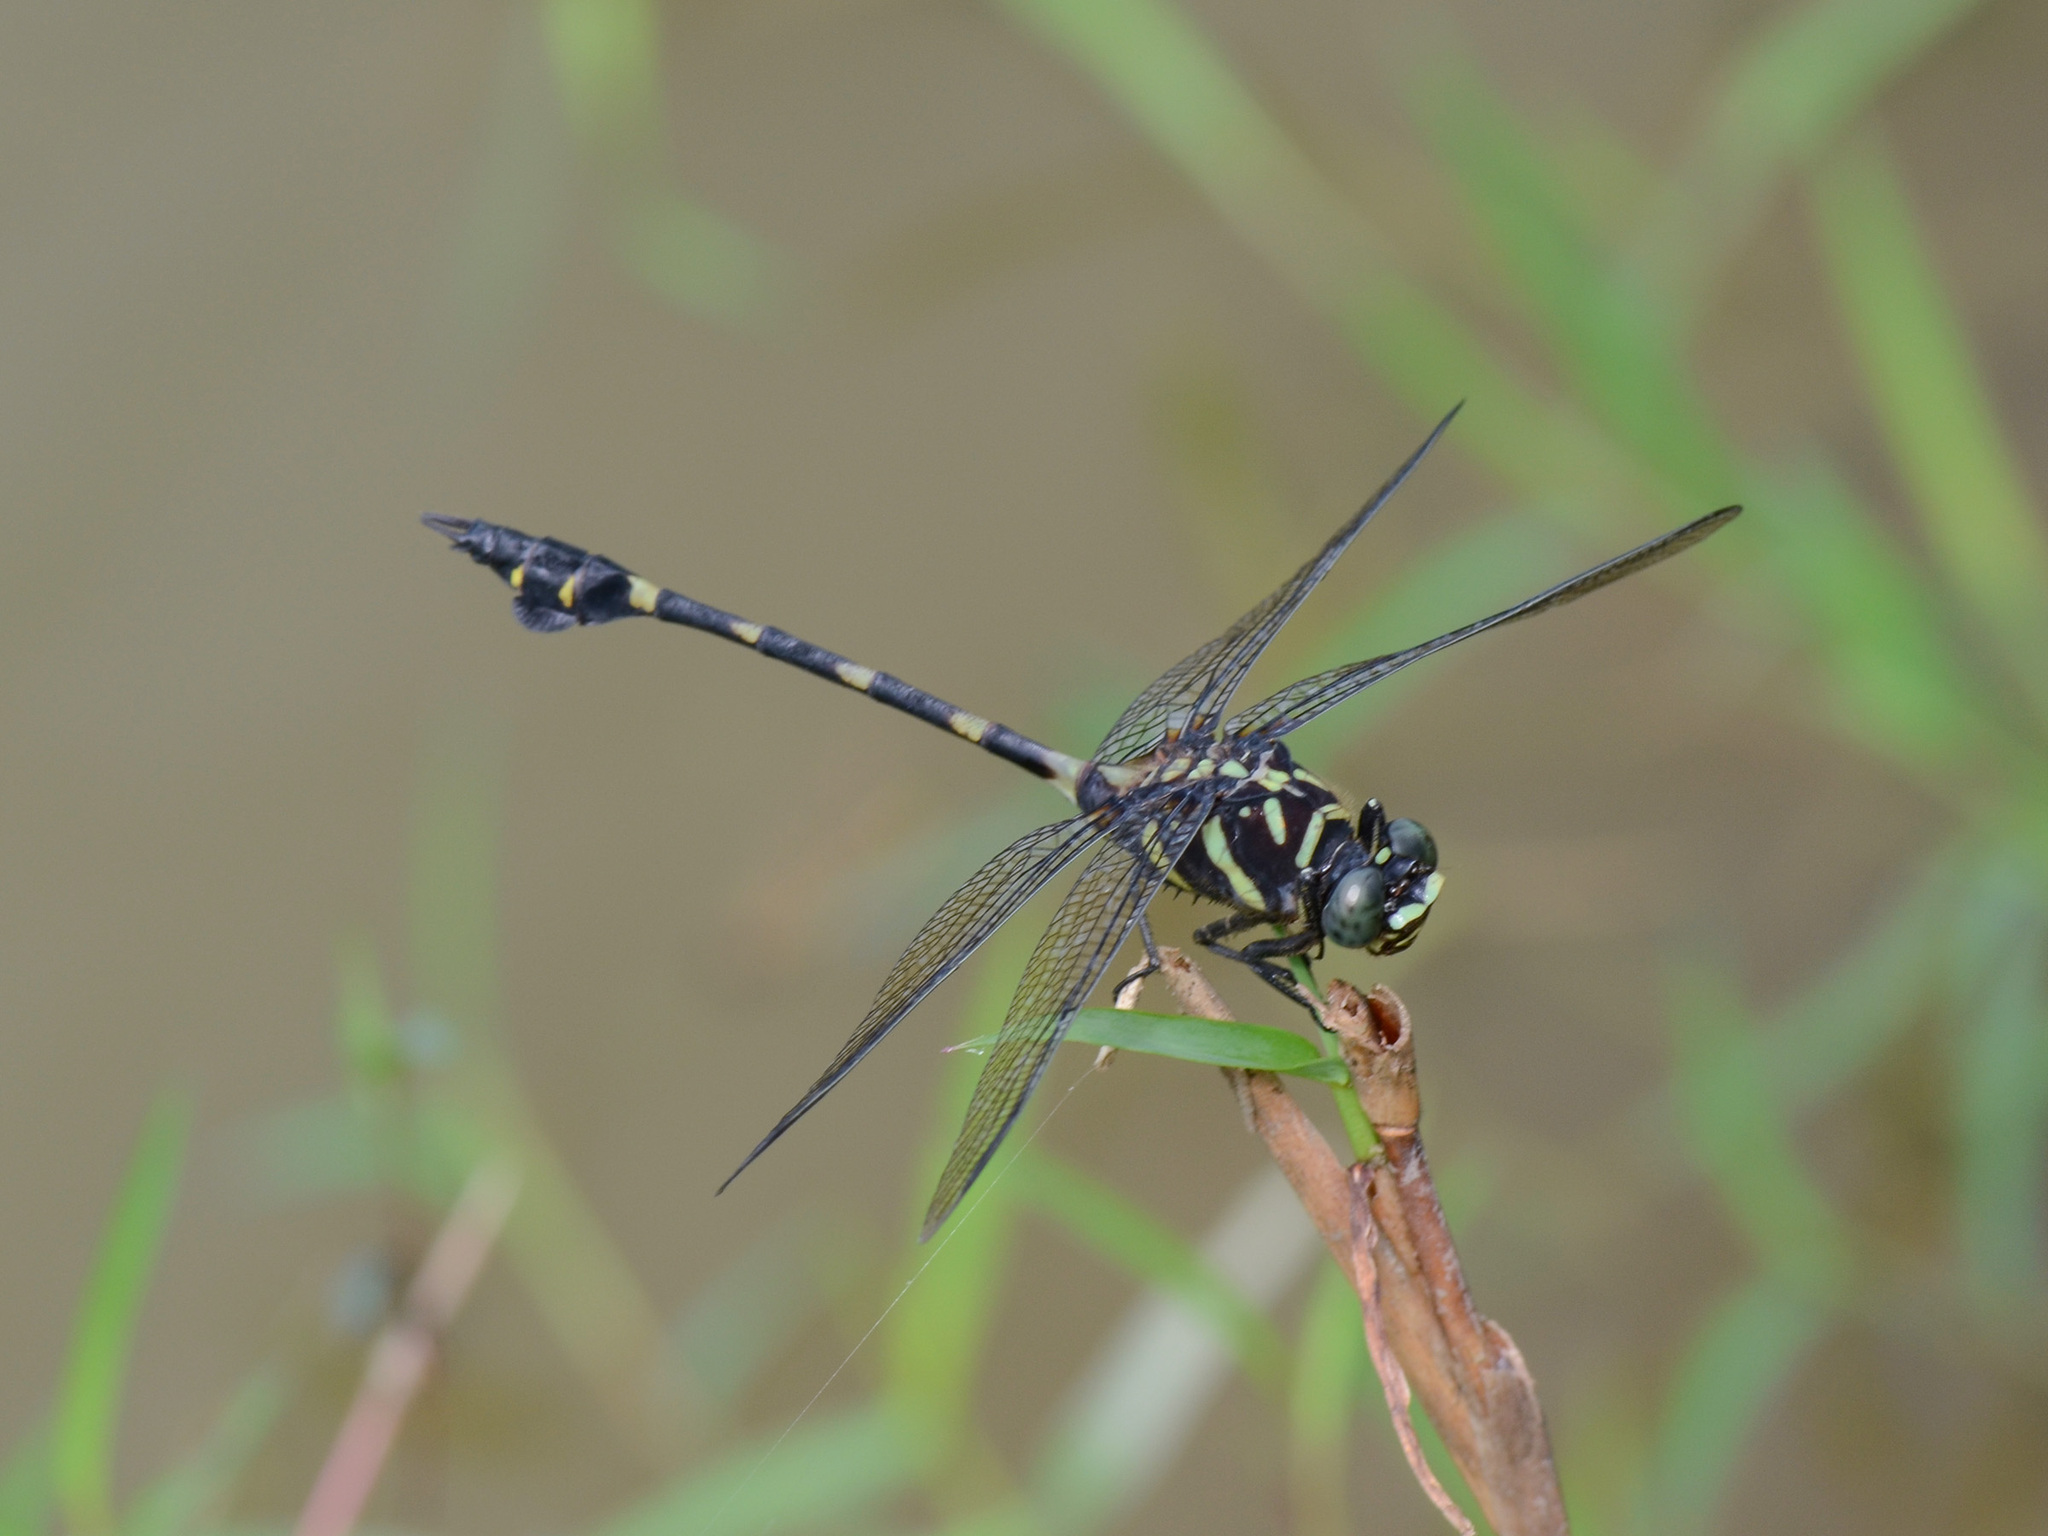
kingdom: Animalia
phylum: Arthropoda
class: Insecta
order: Odonata
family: Gomphidae
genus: Ictinogomphus
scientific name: Ictinogomphus decoratus
